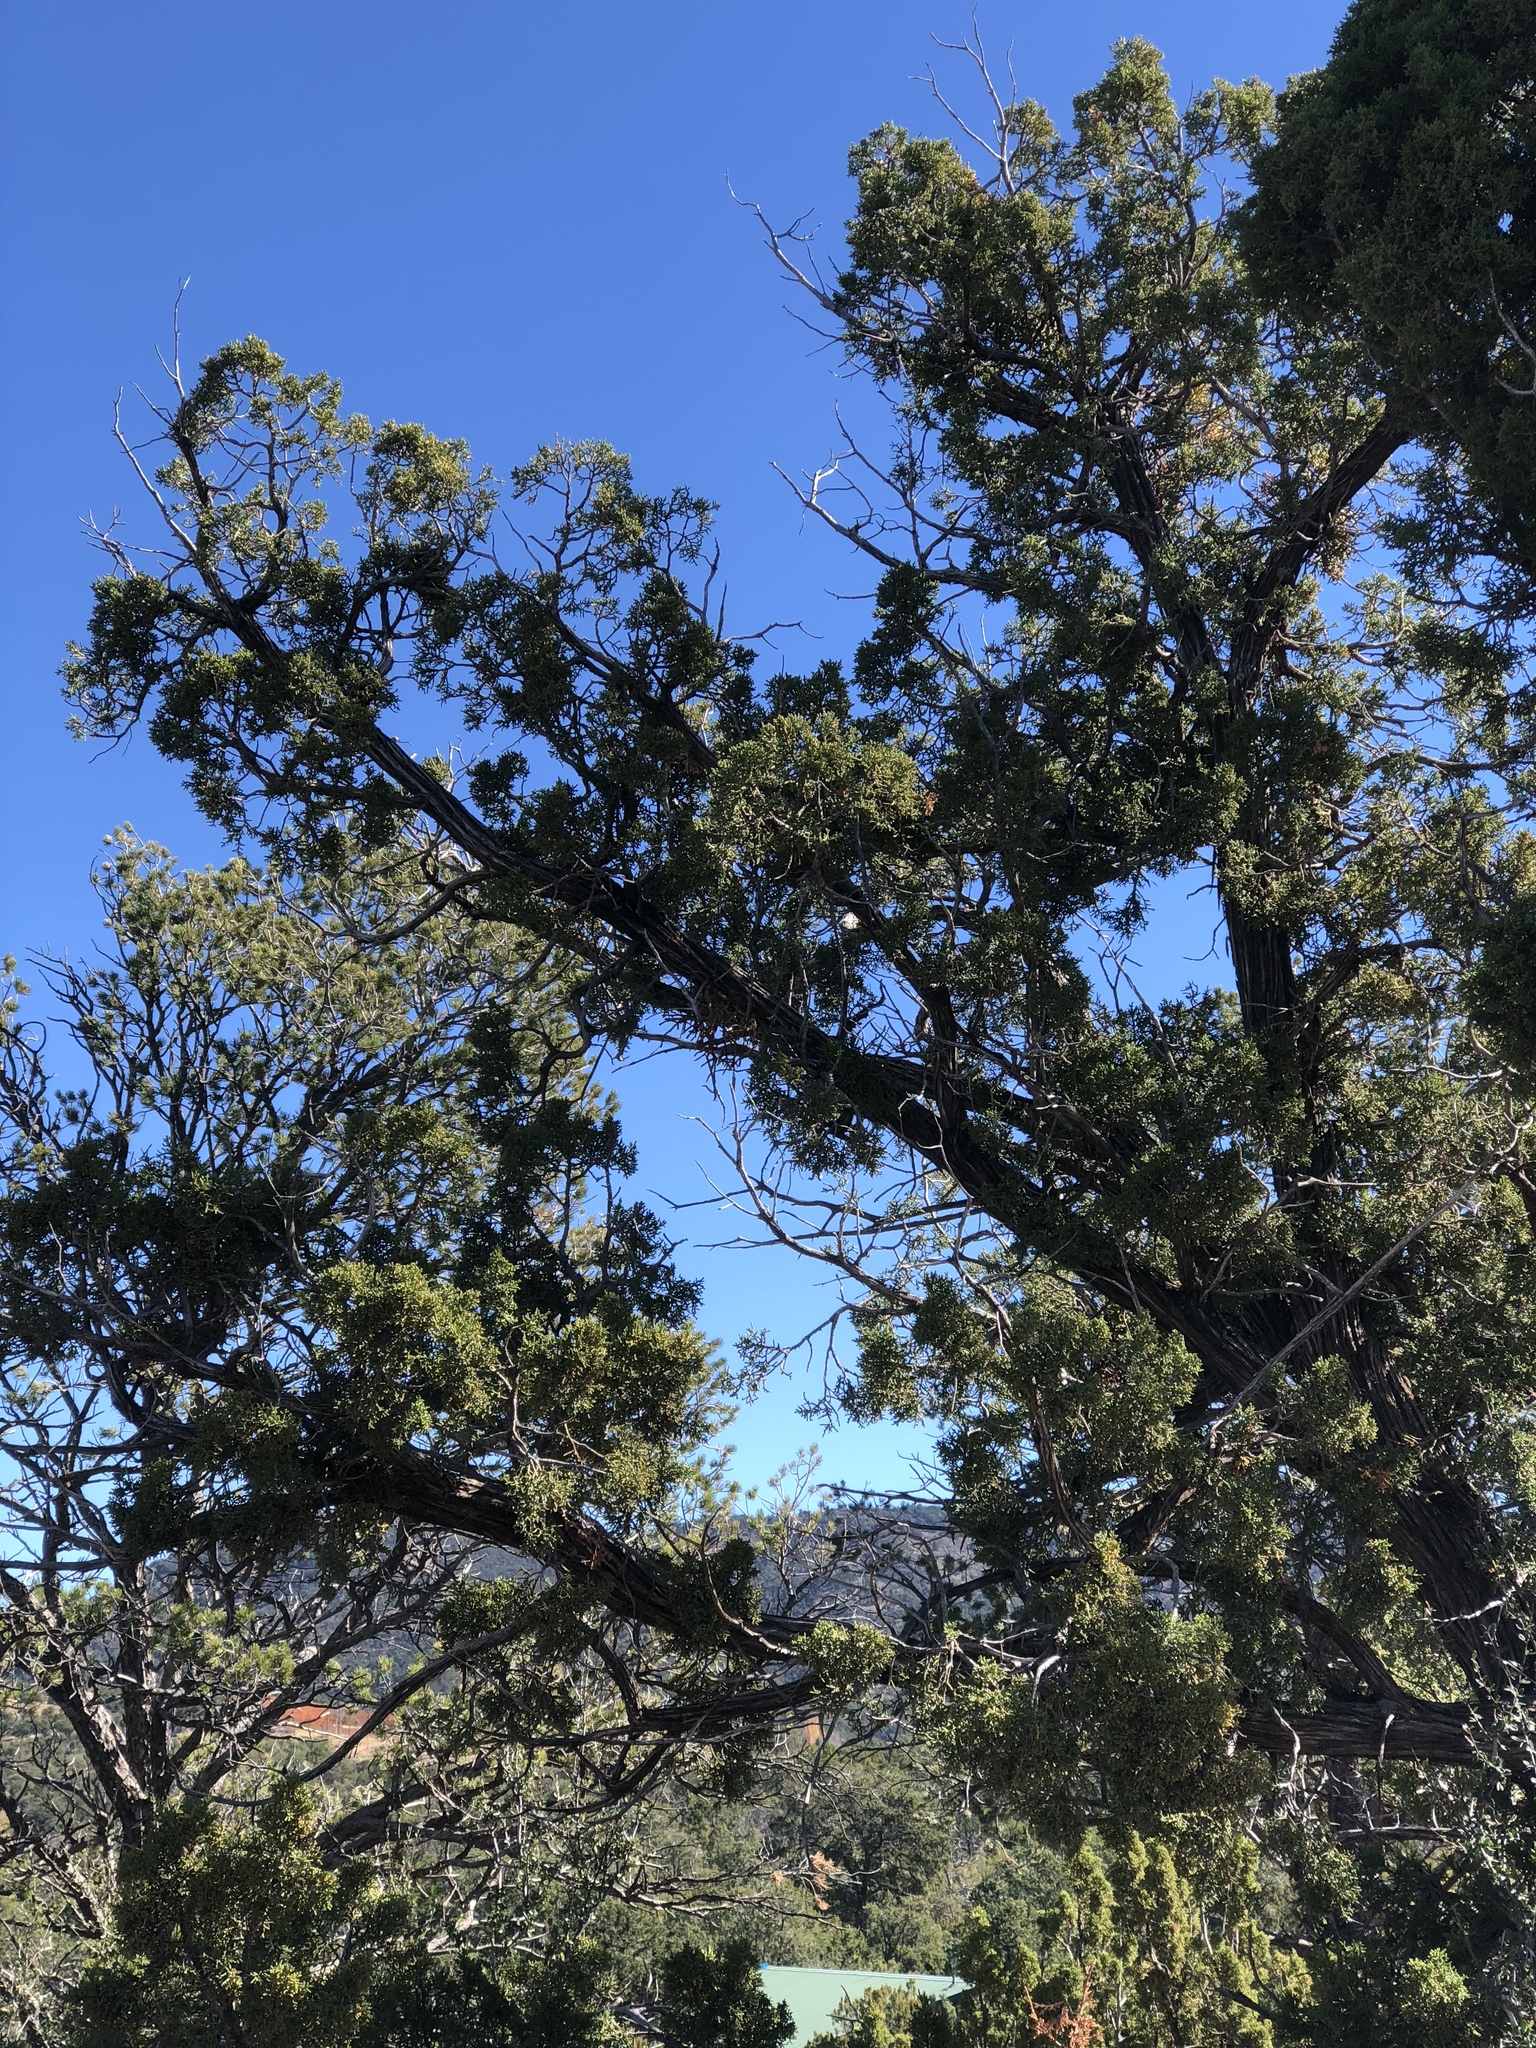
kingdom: Plantae
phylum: Tracheophyta
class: Pinopsida
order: Pinales
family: Cupressaceae
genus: Juniperus
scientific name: Juniperus monosperma
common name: One-seed juniper
